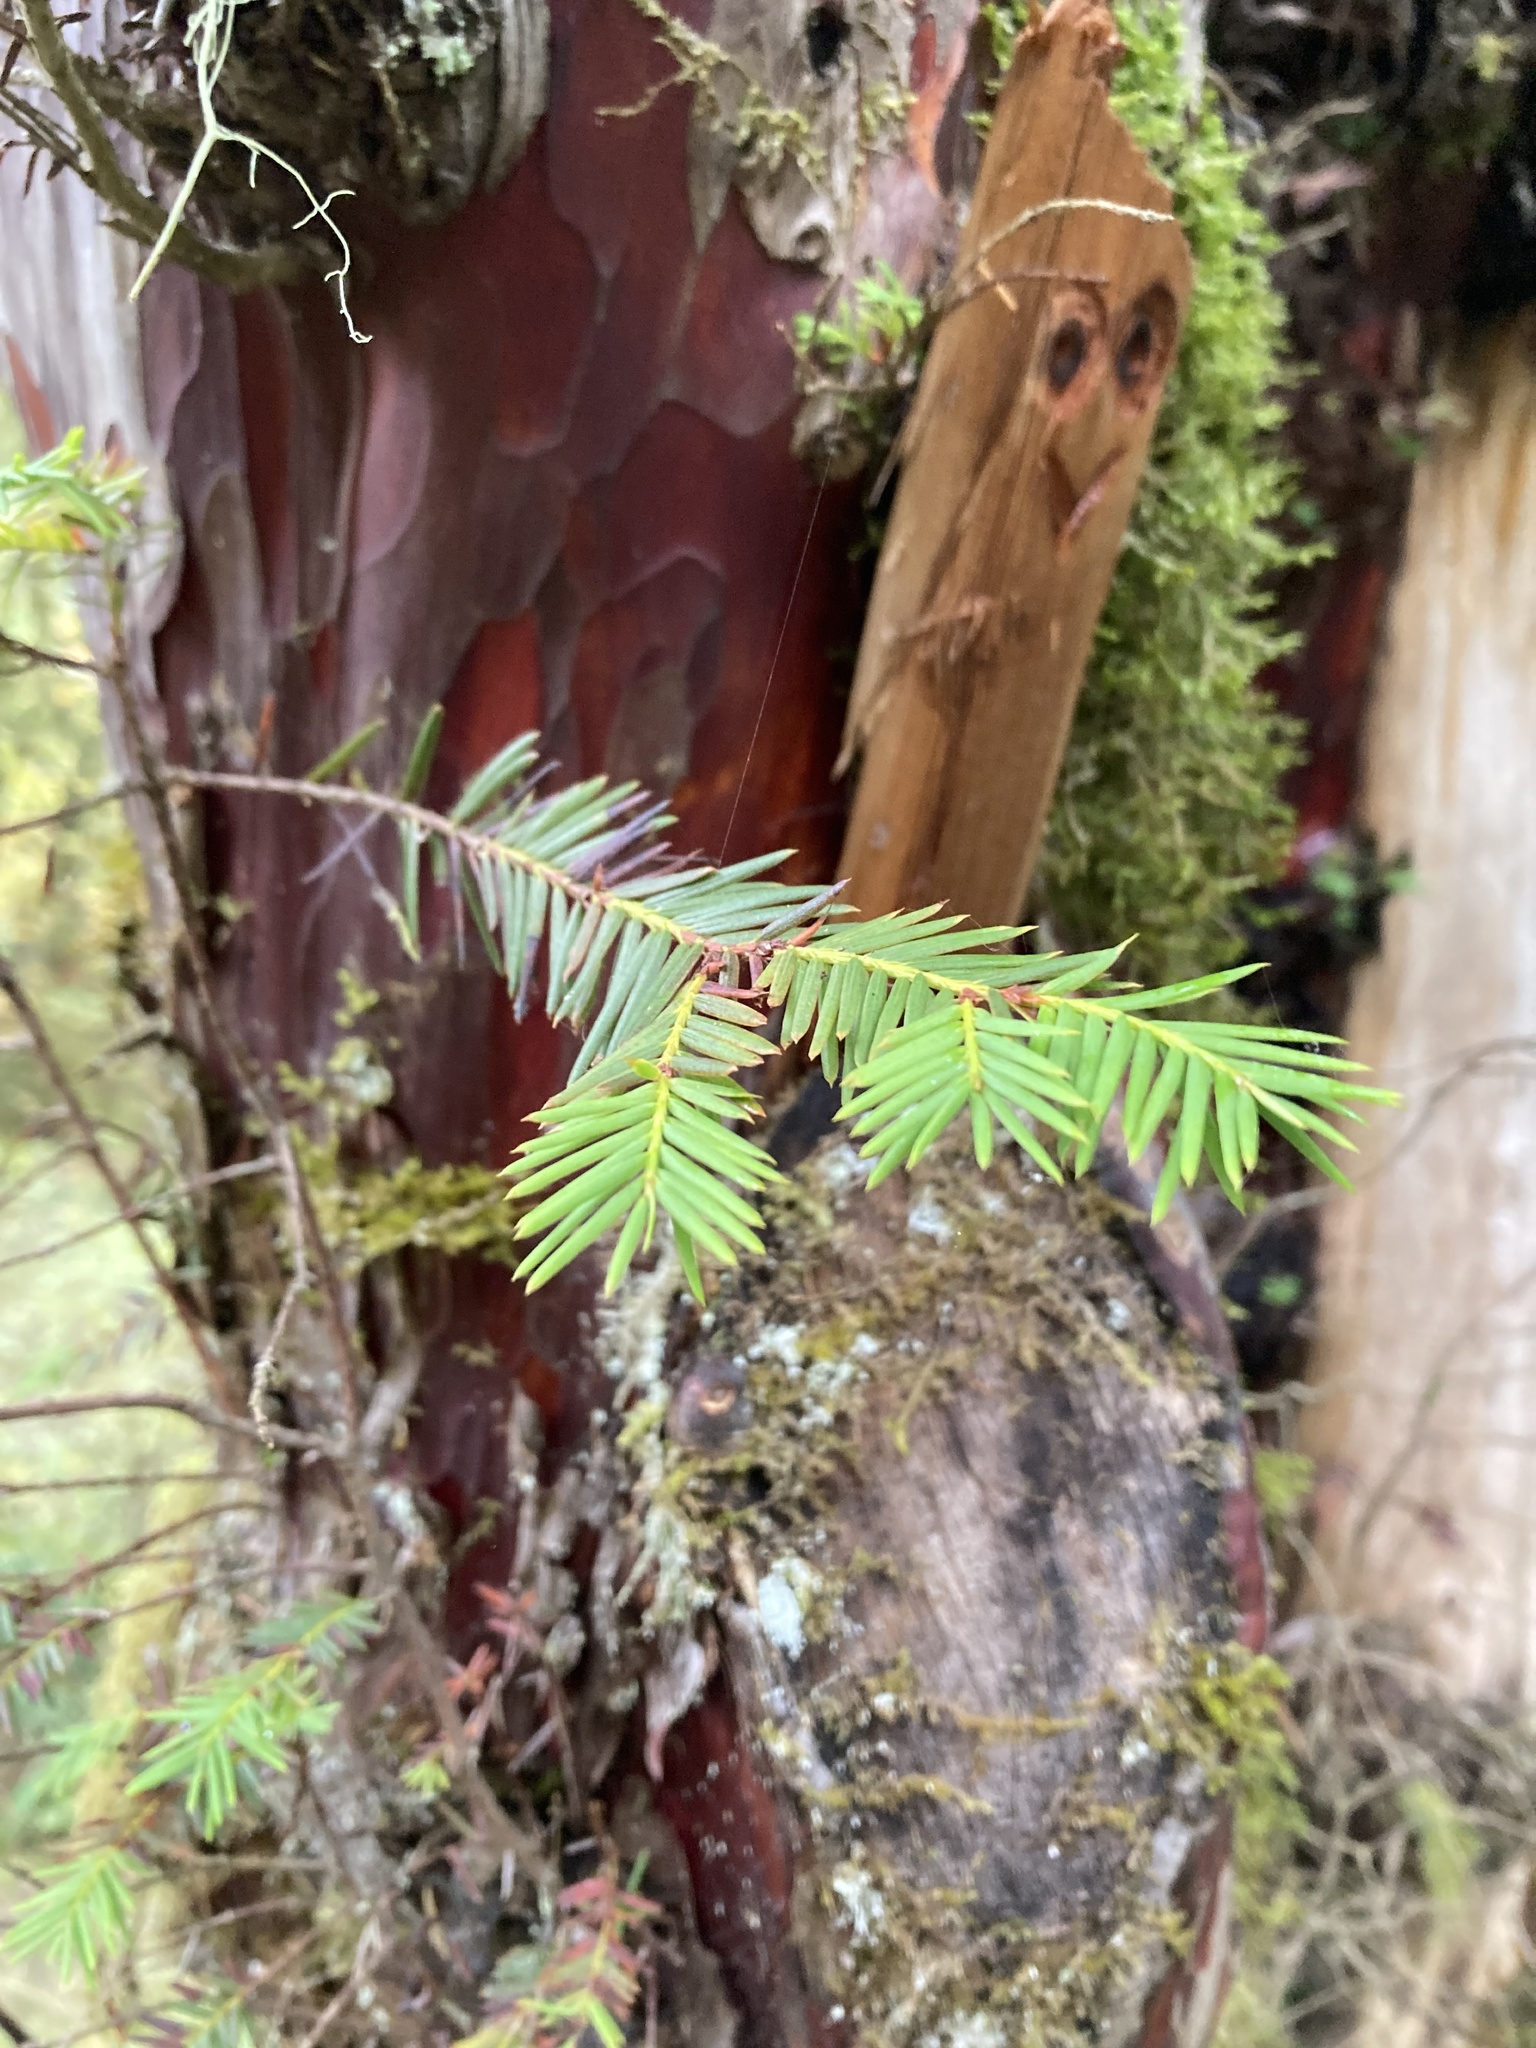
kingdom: Plantae
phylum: Tracheophyta
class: Pinopsida
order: Pinales
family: Taxaceae
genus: Taxus
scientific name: Taxus brevifolia
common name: Pacific yew
